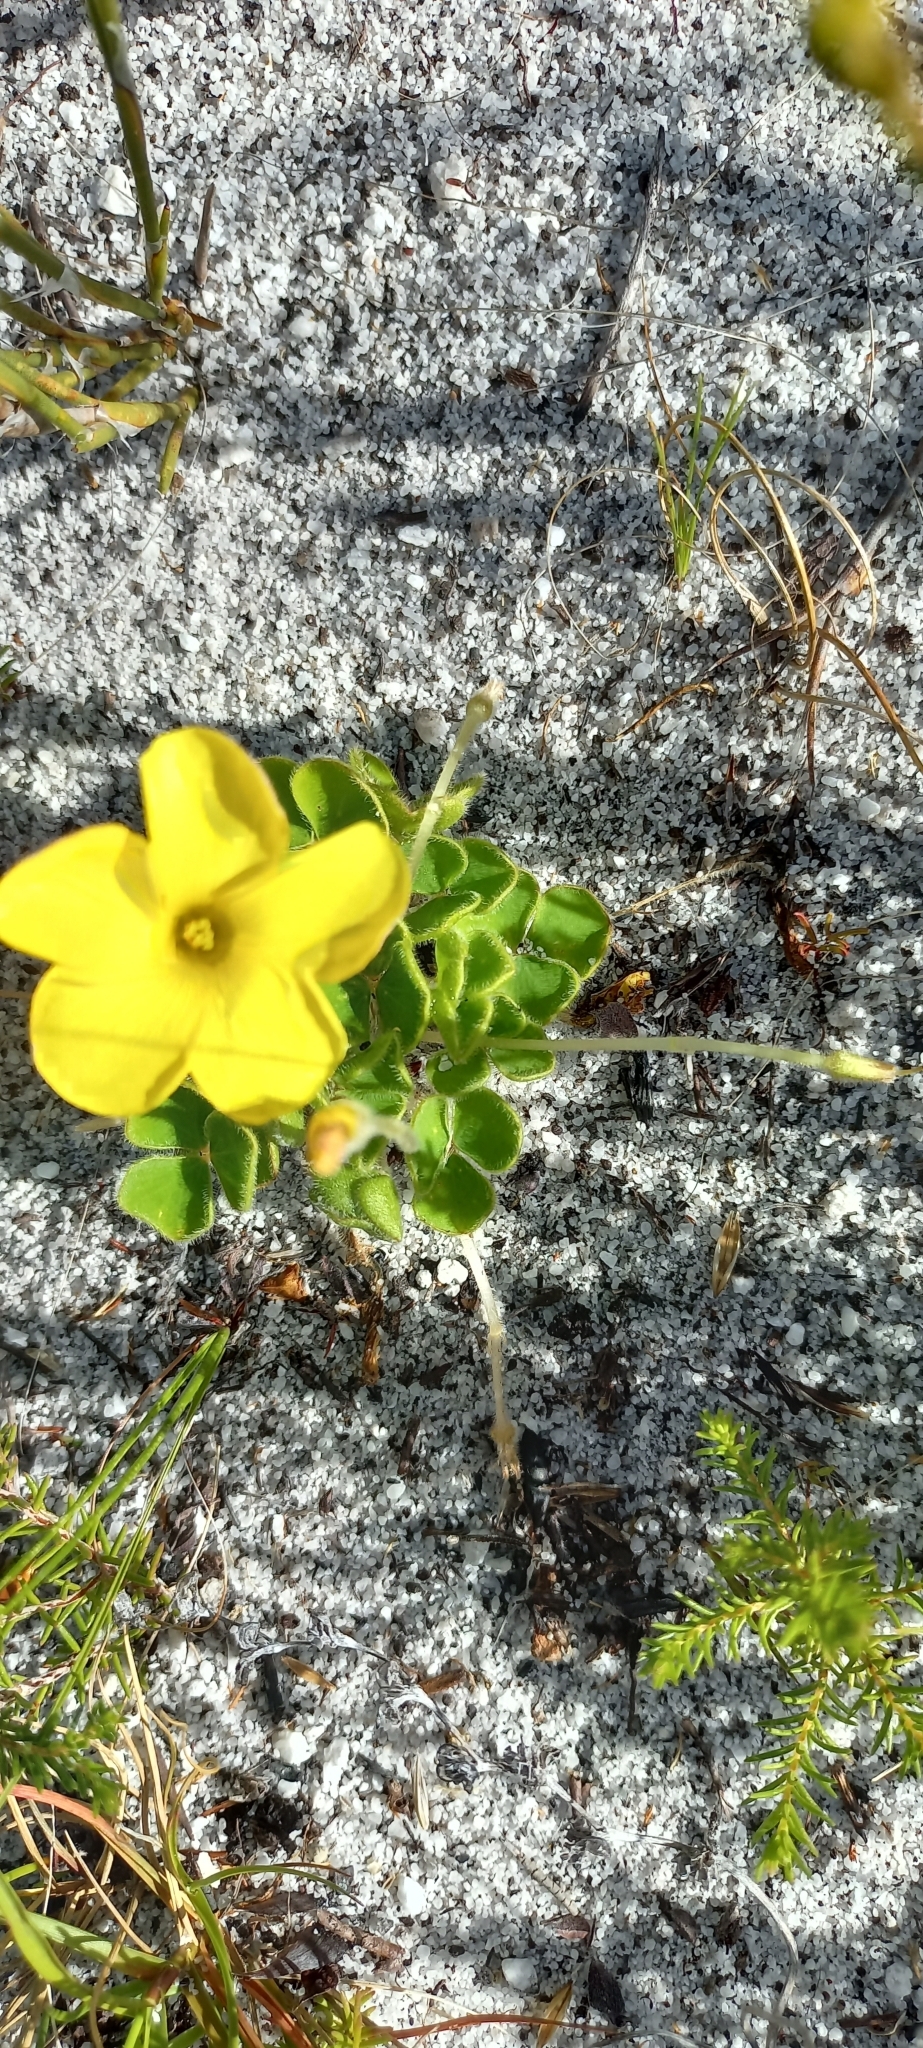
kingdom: Plantae
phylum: Tracheophyta
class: Magnoliopsida
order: Oxalidales
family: Oxalidaceae
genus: Oxalis
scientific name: Oxalis luteola
